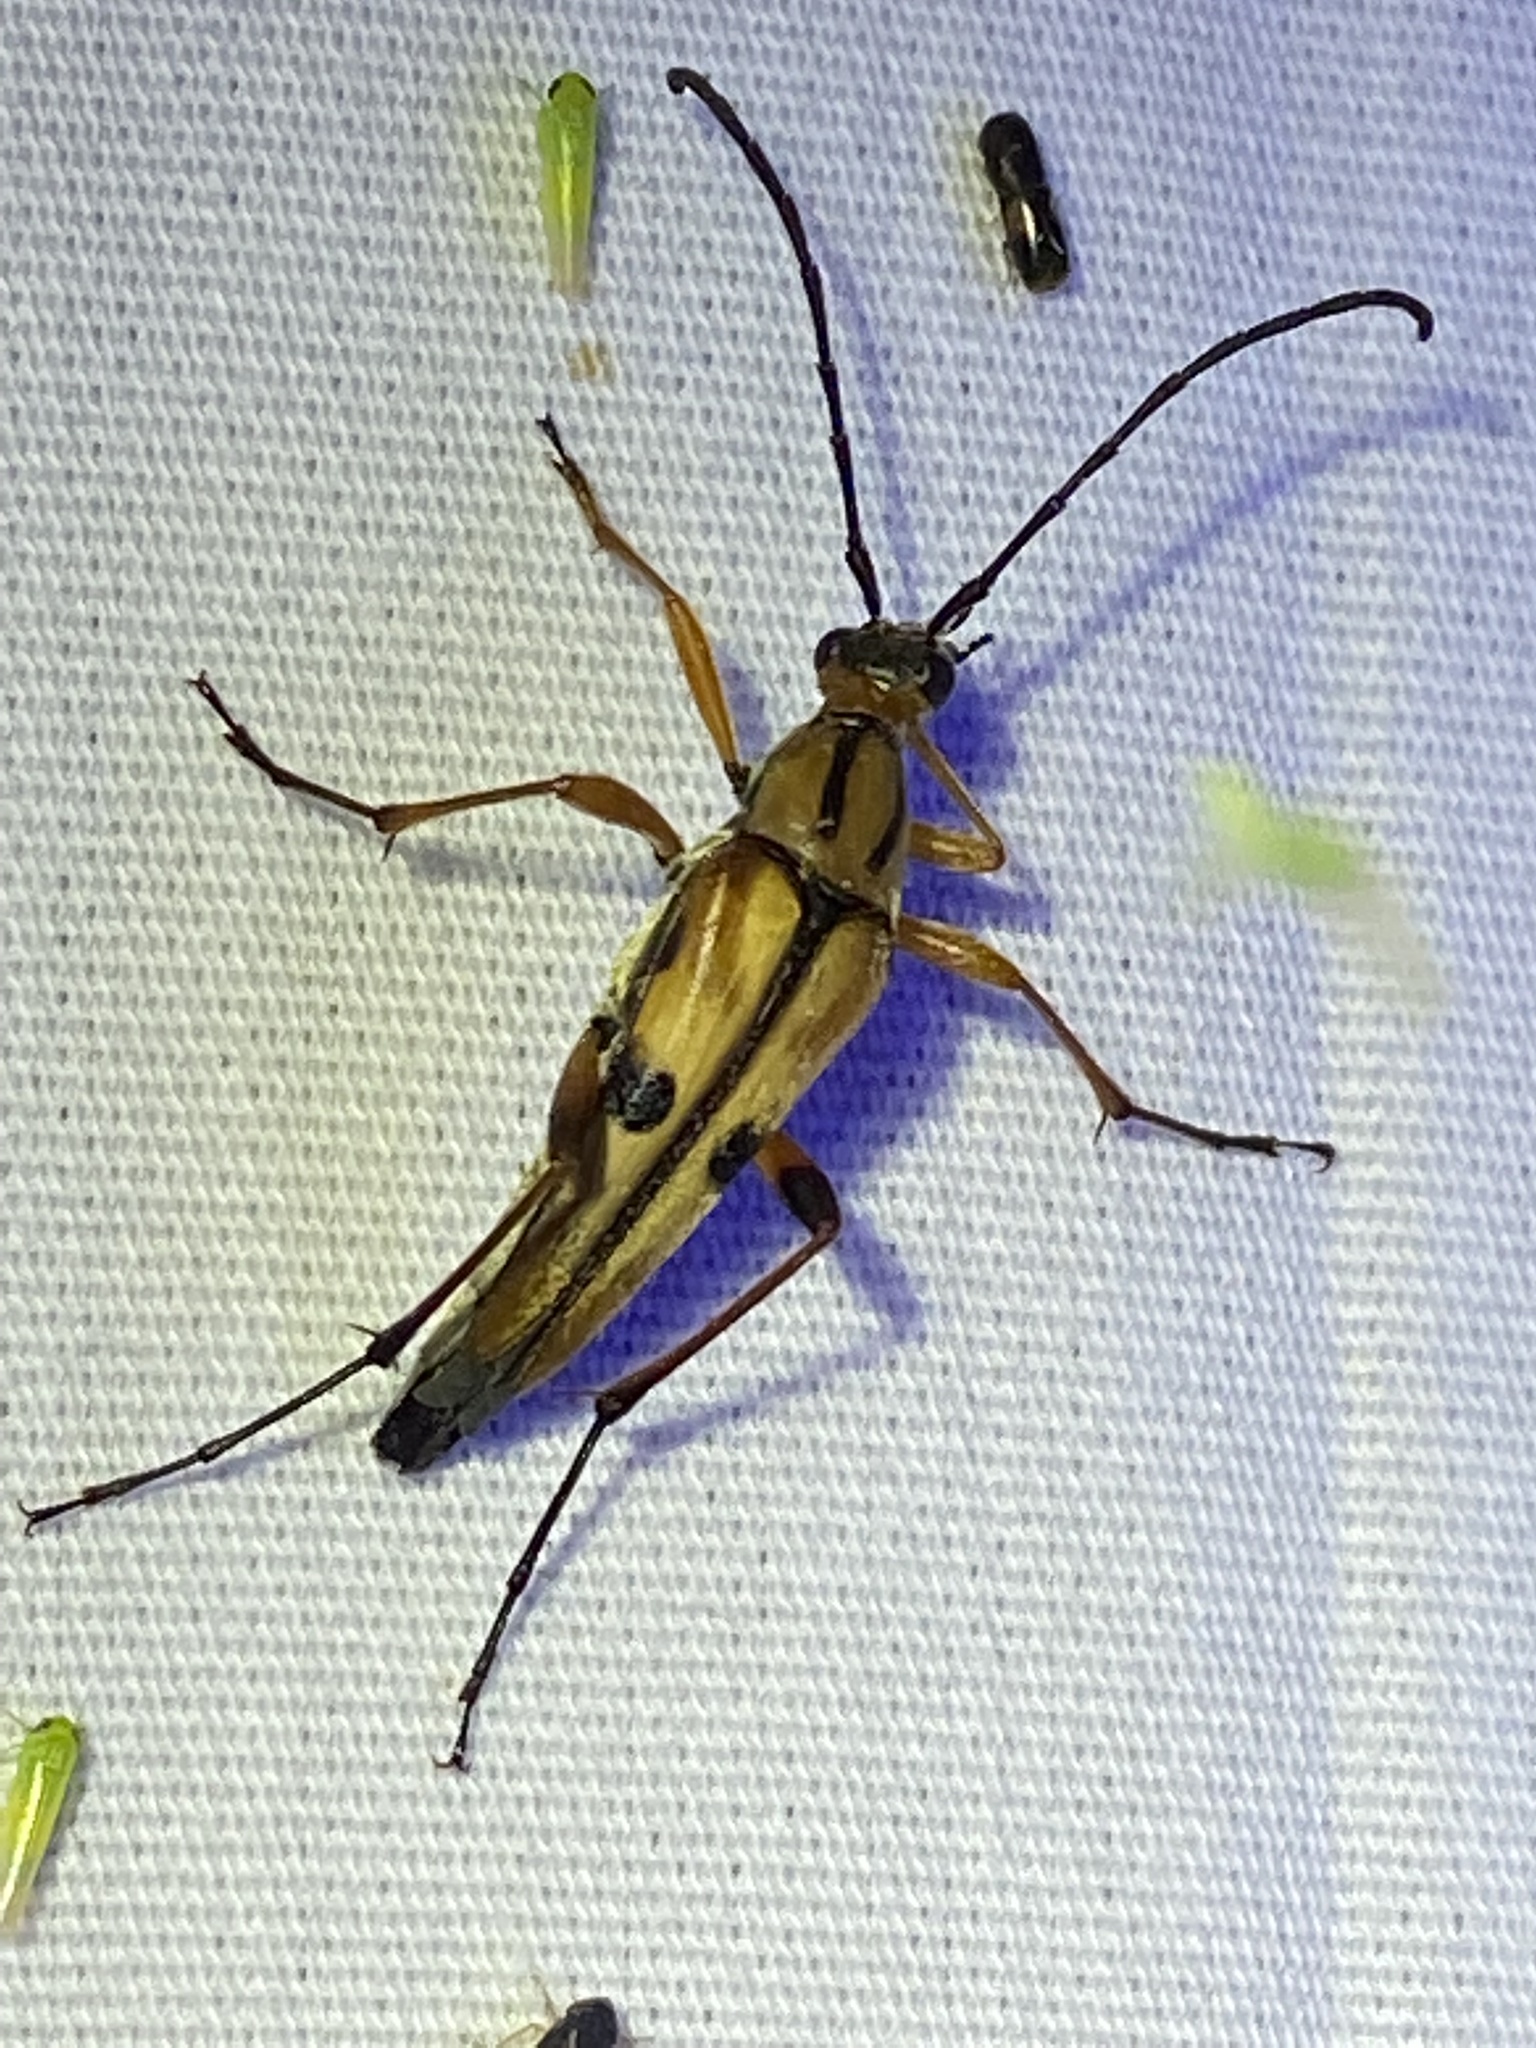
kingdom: Animalia
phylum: Arthropoda
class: Insecta
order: Coleoptera
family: Cerambycidae
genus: Strangalia
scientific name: Strangalia famelica
